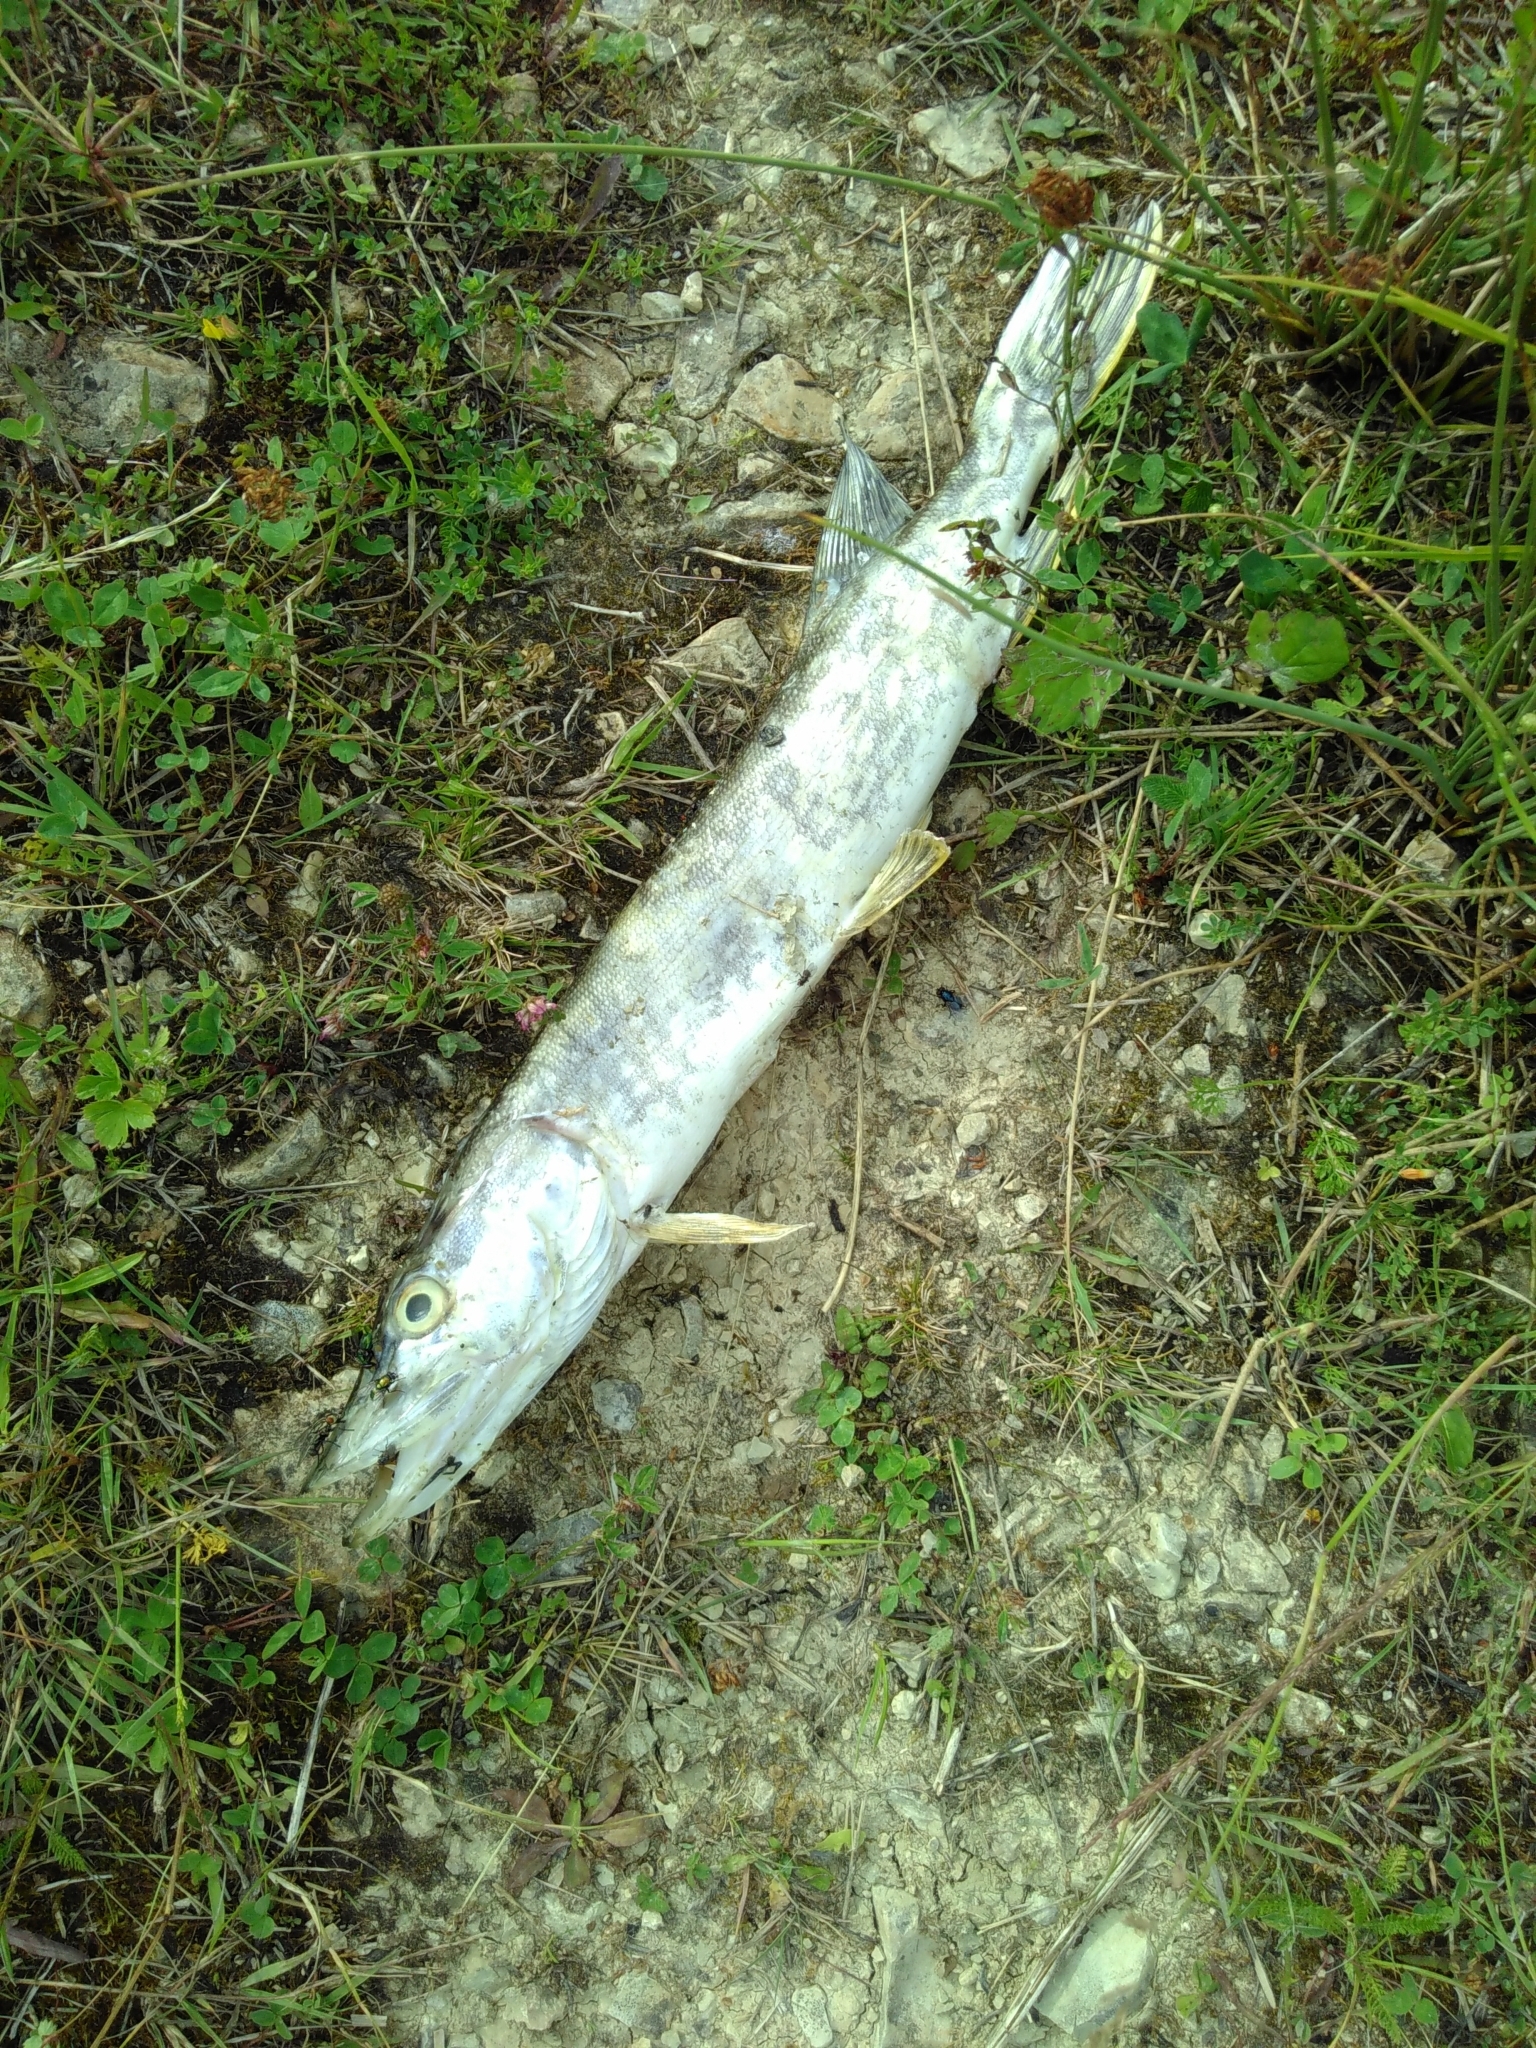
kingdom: Animalia
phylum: Chordata
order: Esociformes
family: Esocidae
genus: Esox
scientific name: Esox lucius
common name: Northern pike
